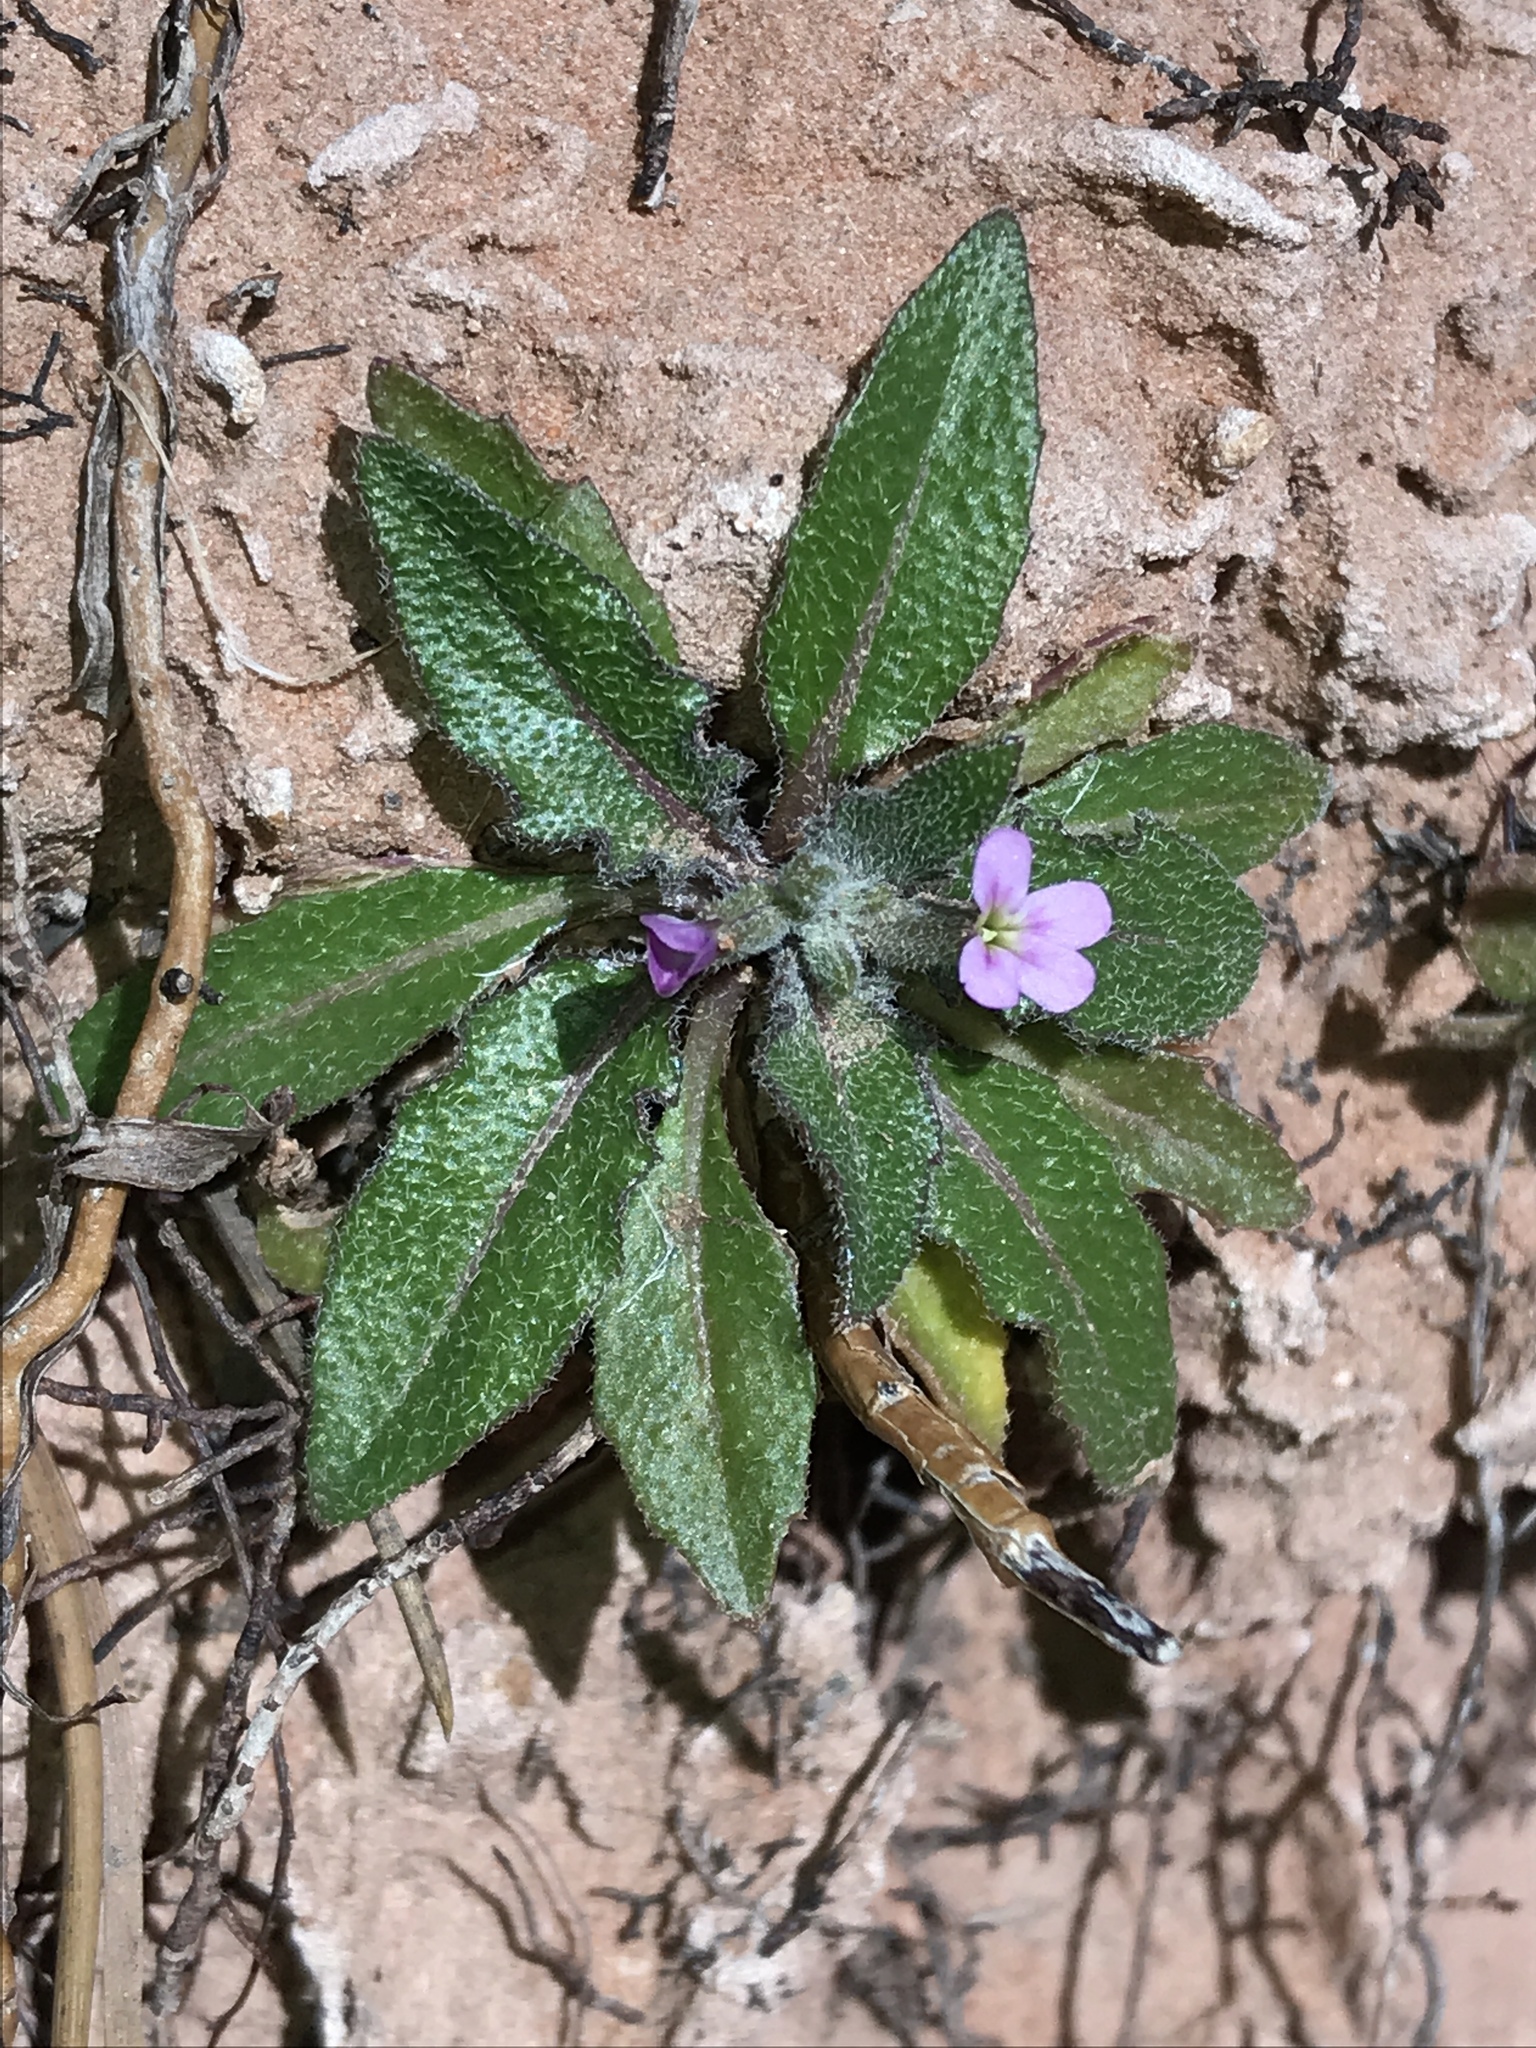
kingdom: Plantae
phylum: Tracheophyta
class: Magnoliopsida
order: Brassicales
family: Brassicaceae
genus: Strigosella
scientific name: Strigosella africana
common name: African mustard
